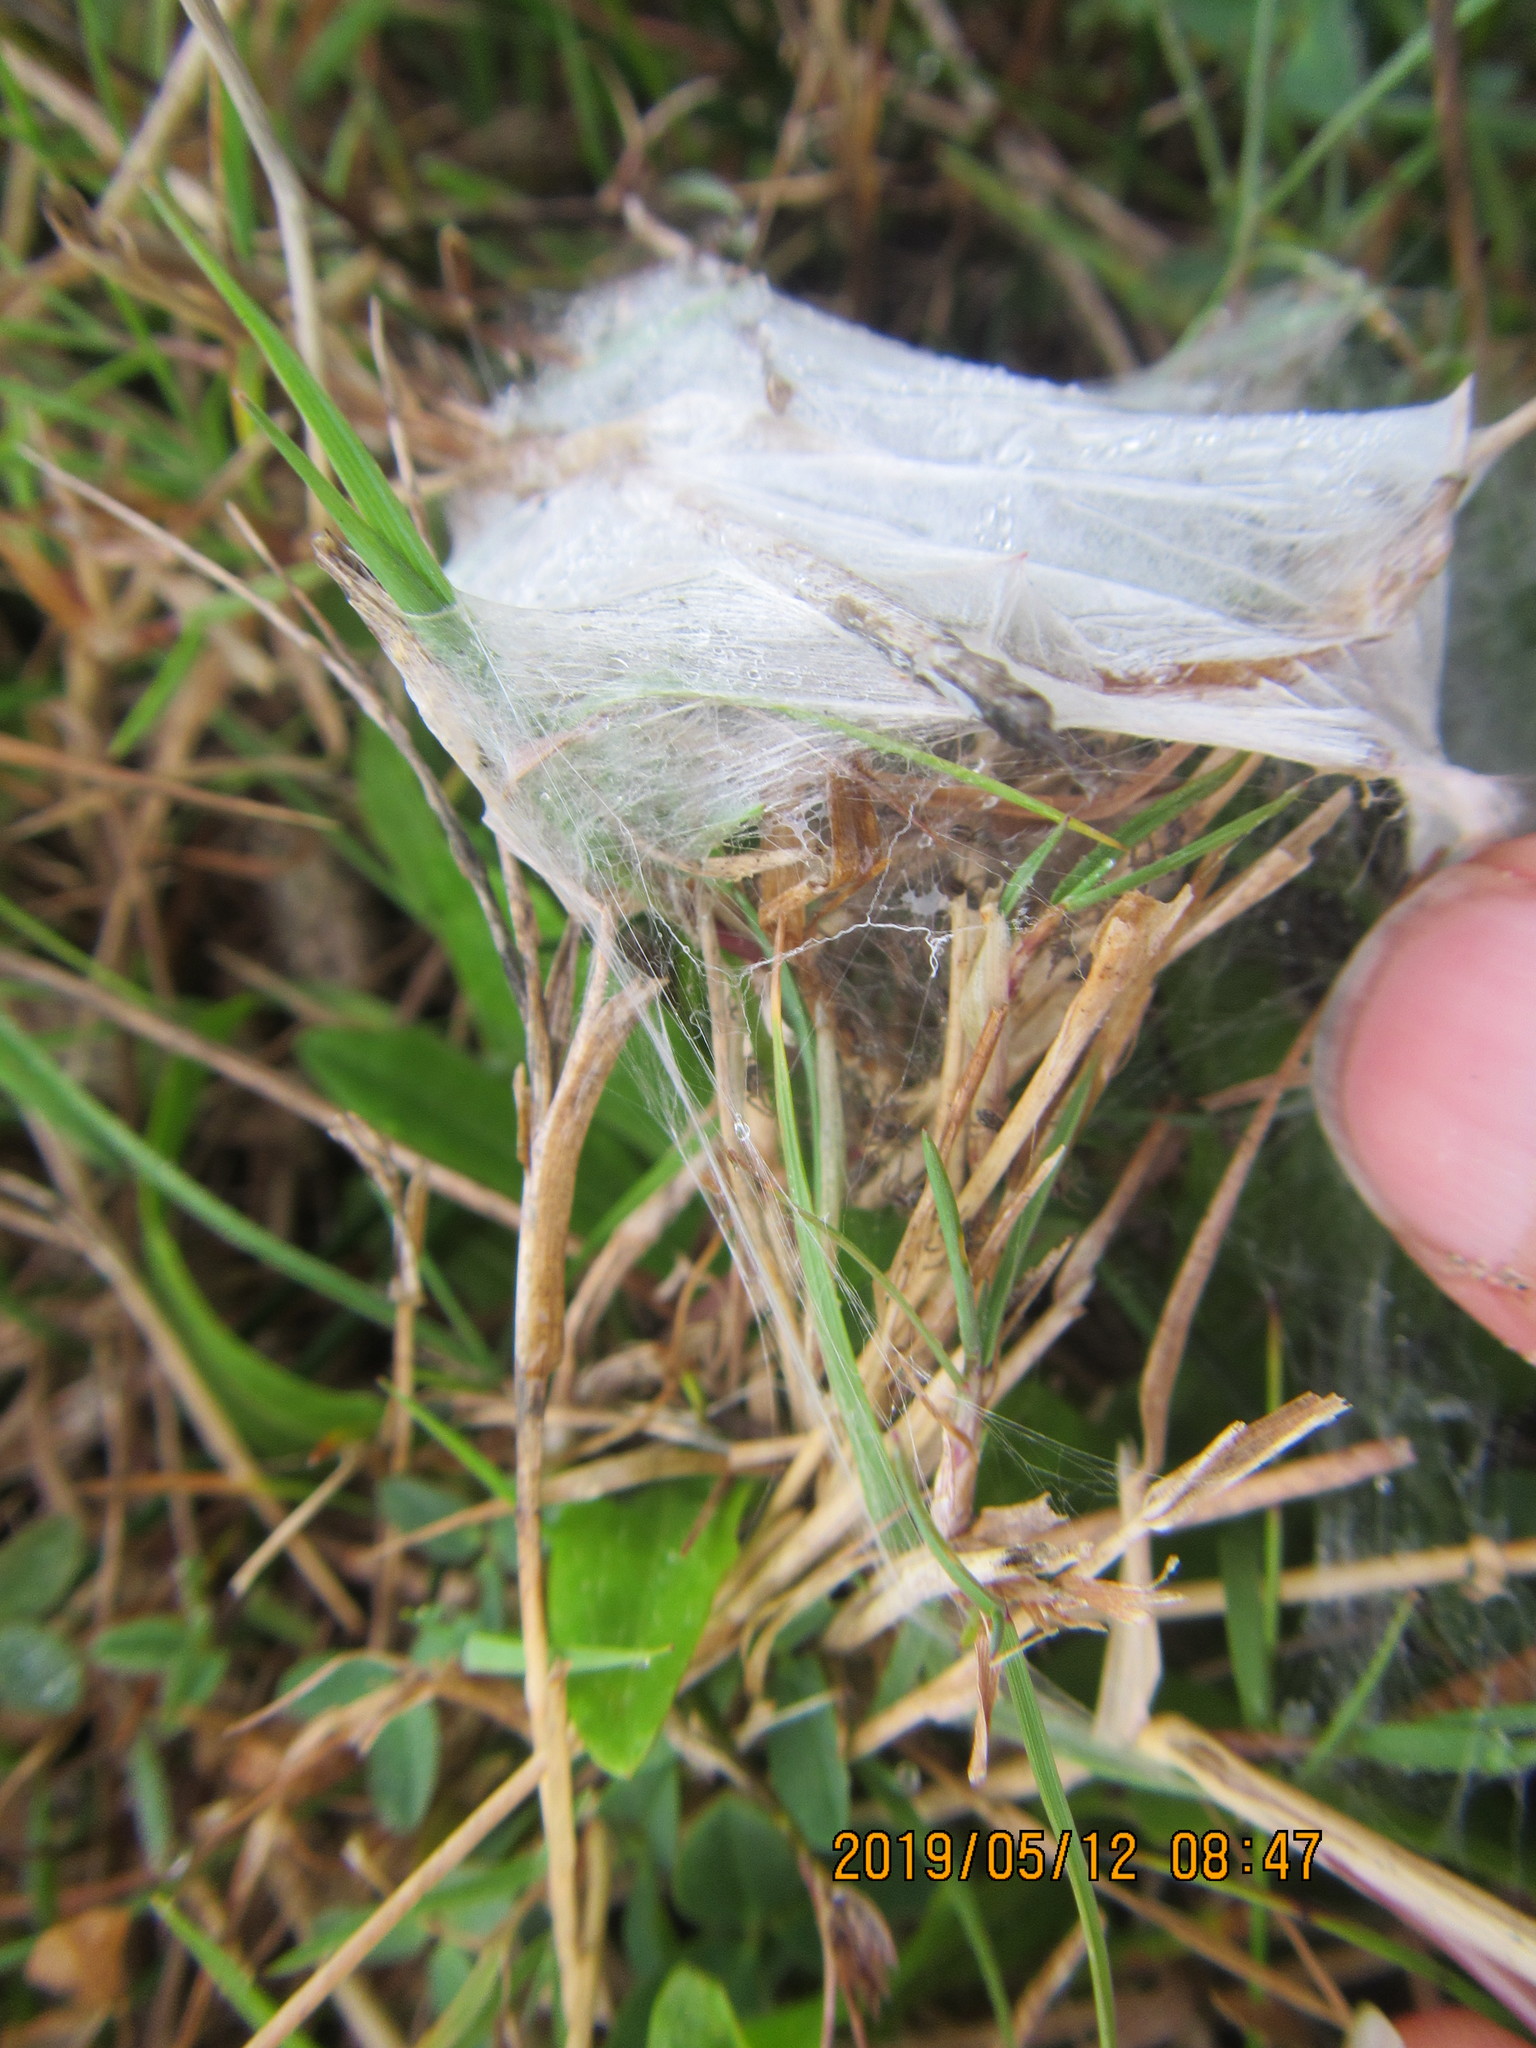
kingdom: Animalia
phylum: Arthropoda
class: Arachnida
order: Araneae
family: Pisauridae
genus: Dolomedes
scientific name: Dolomedes minor
